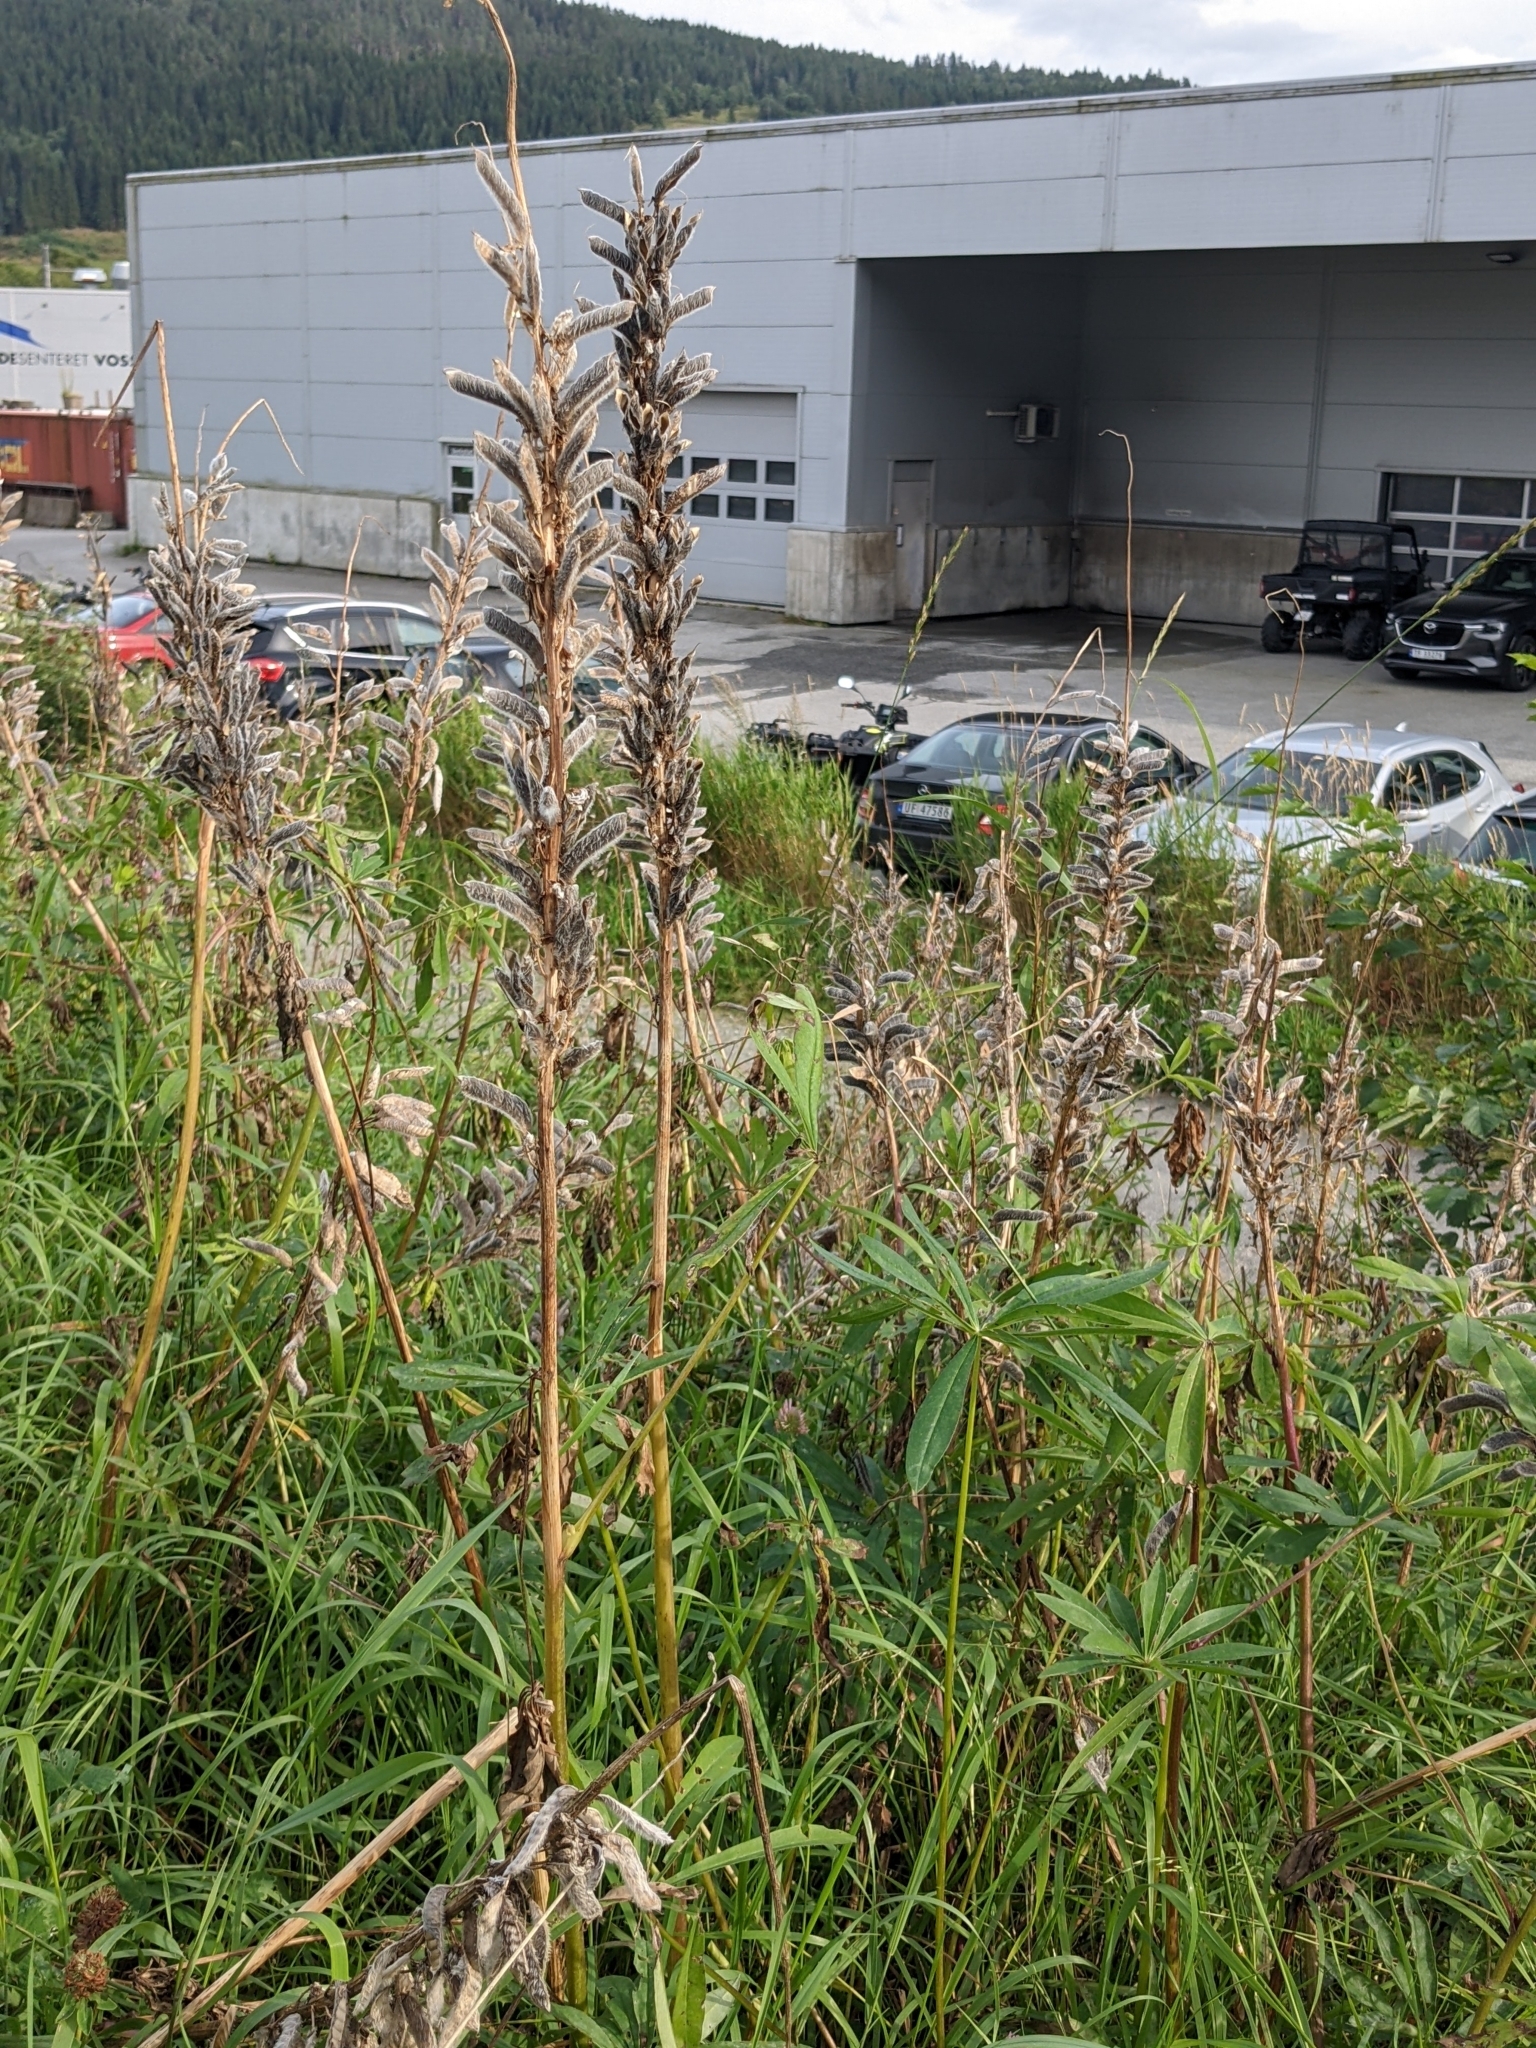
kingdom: Plantae
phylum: Tracheophyta
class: Magnoliopsida
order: Fabales
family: Fabaceae
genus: Lupinus
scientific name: Lupinus polyphyllus
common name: Garden lupin
